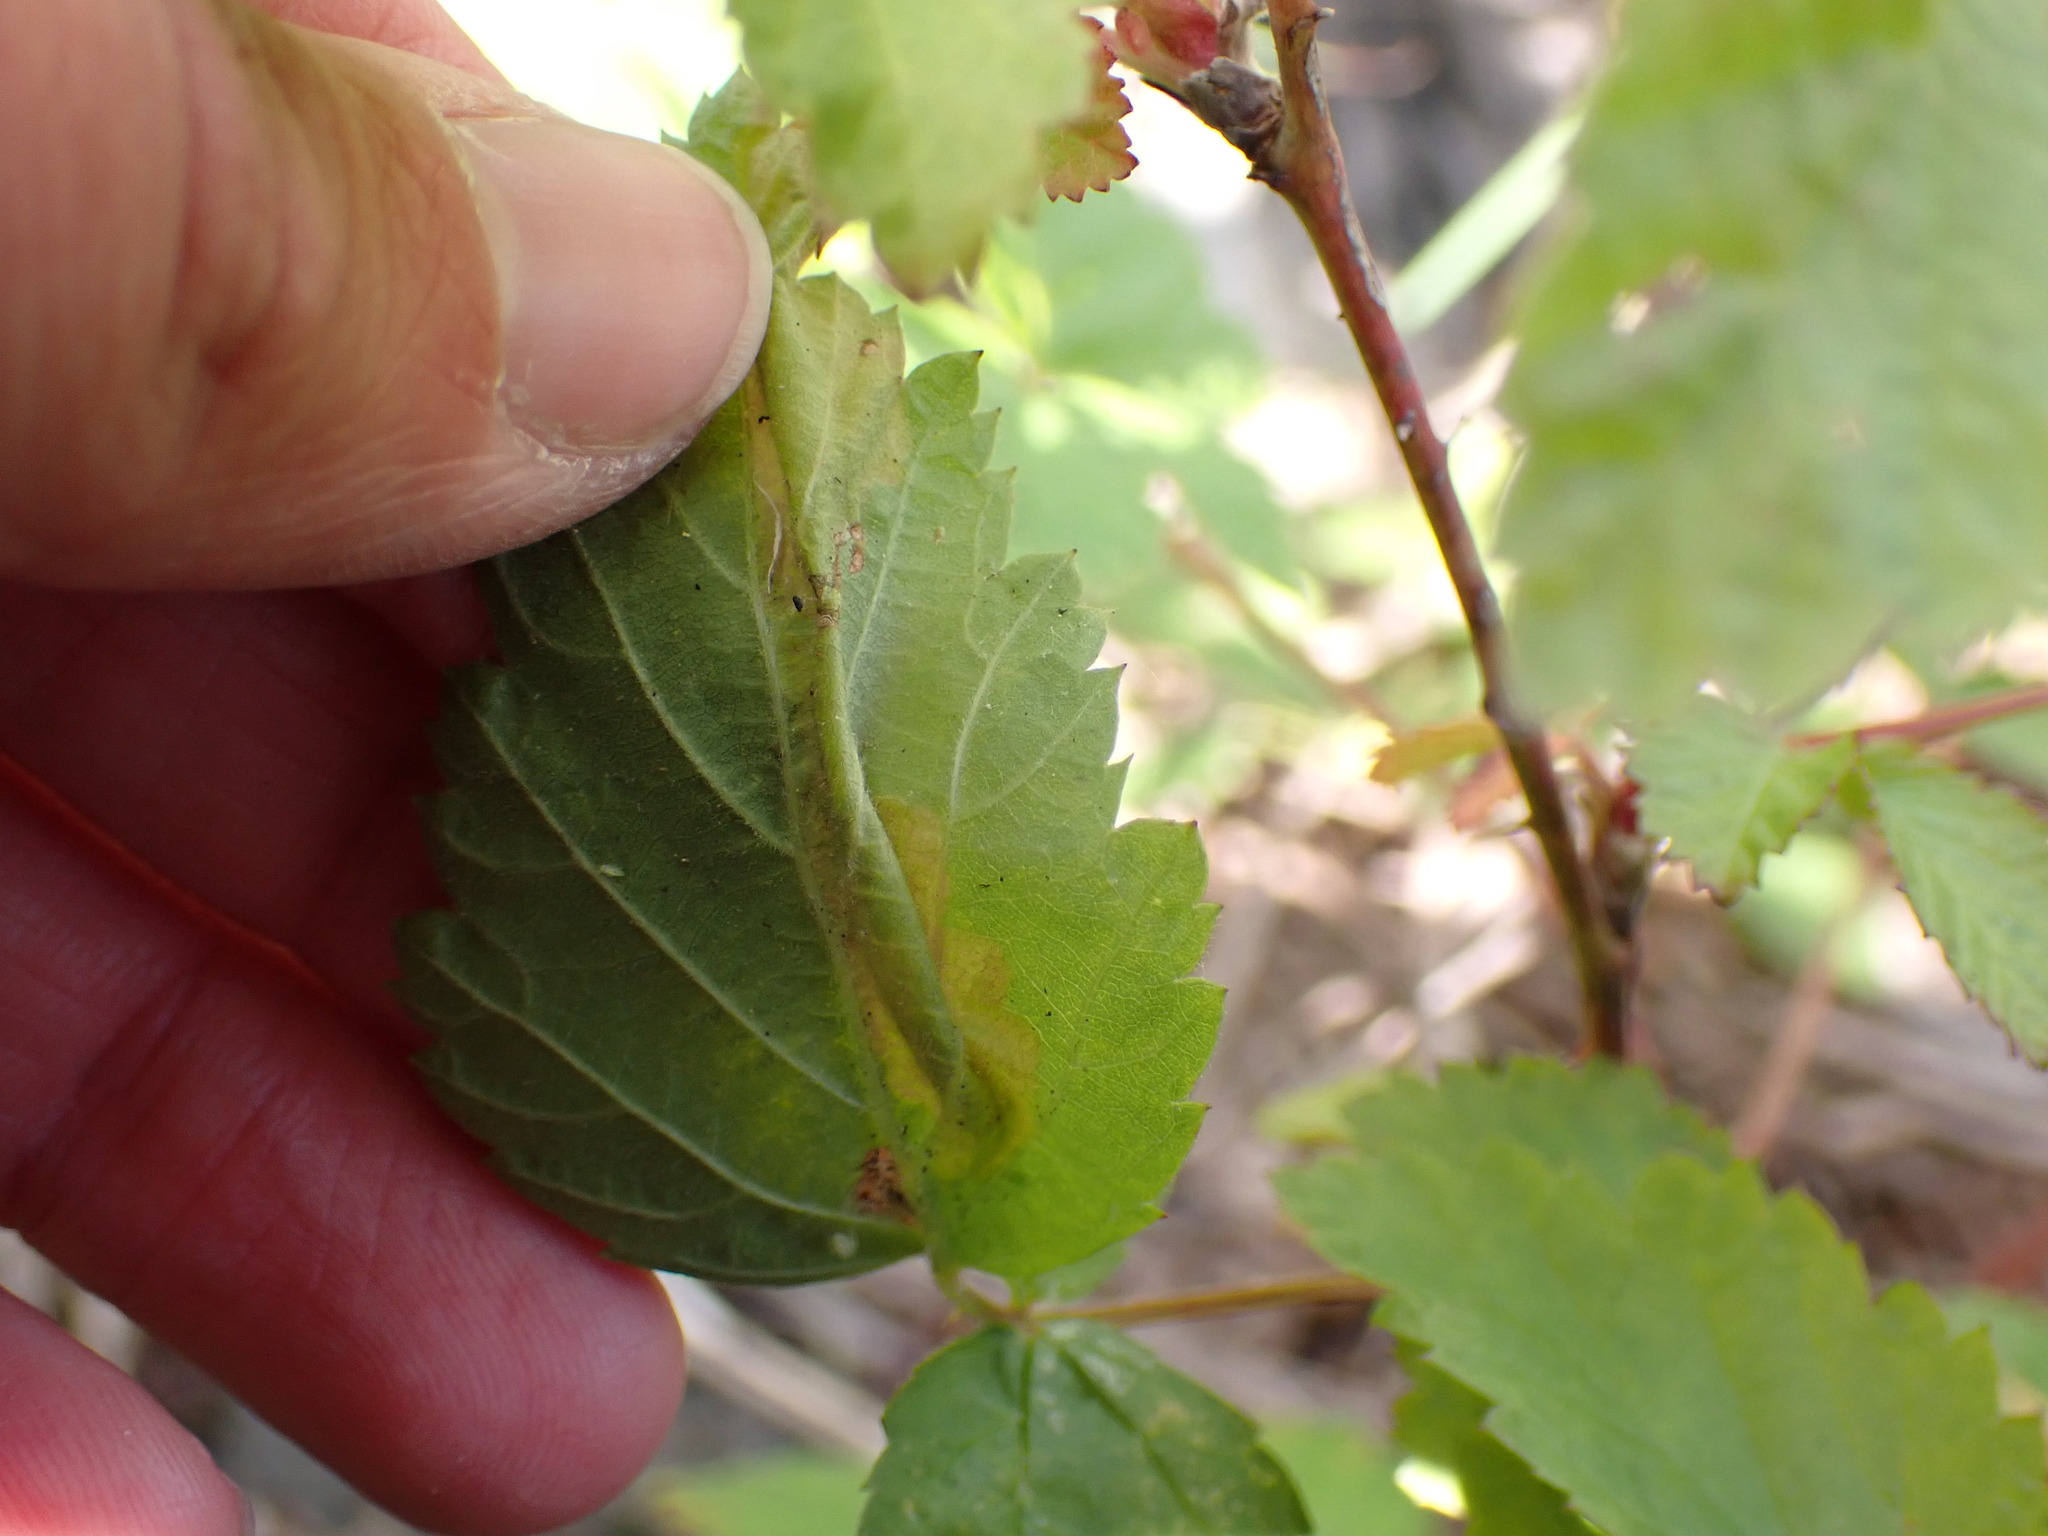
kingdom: Animalia
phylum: Arthropoda
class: Insecta
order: Lepidoptera
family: Tischeriidae
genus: Coptotriche
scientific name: Coptotriche aenea
